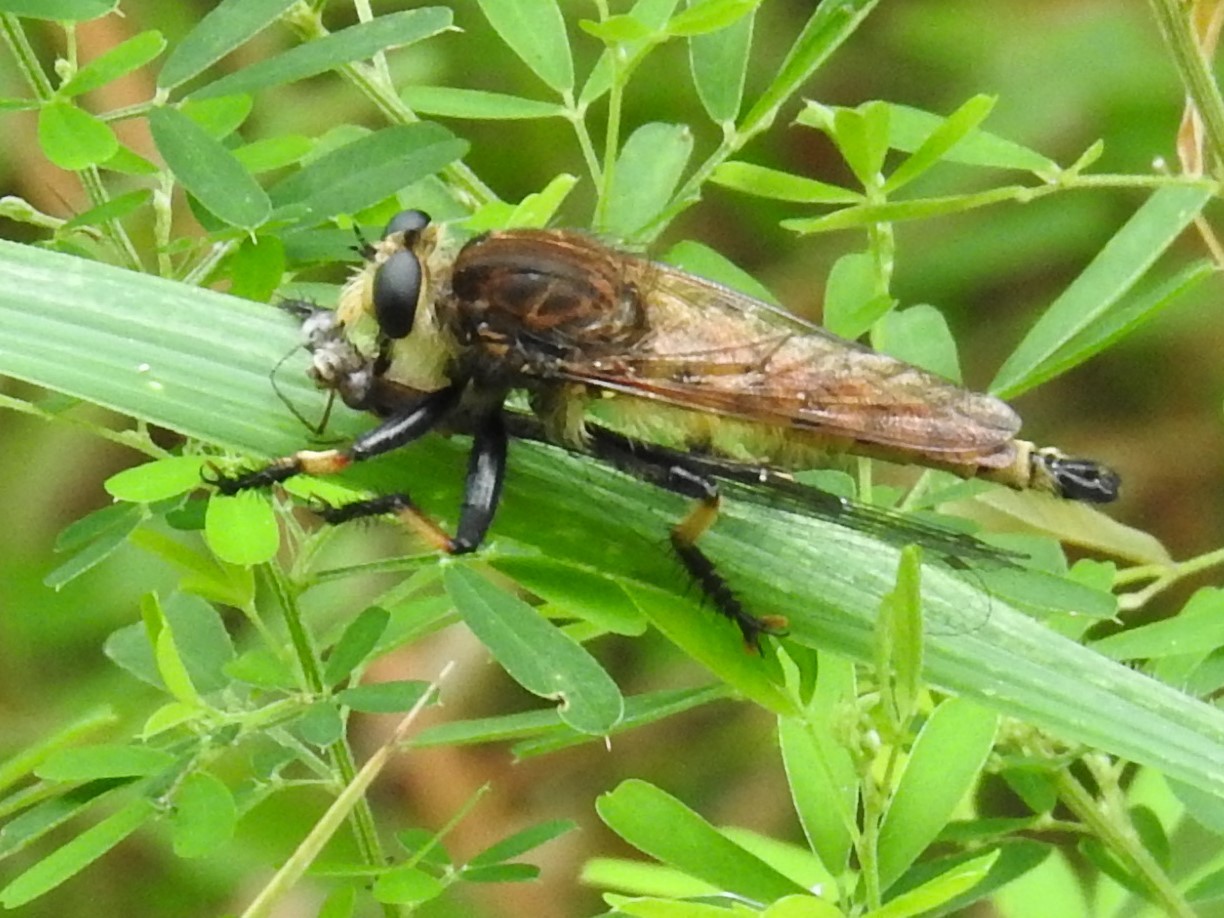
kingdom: Animalia
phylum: Arthropoda
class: Insecta
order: Diptera
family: Asilidae
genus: Promachus
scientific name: Promachus rufipes
